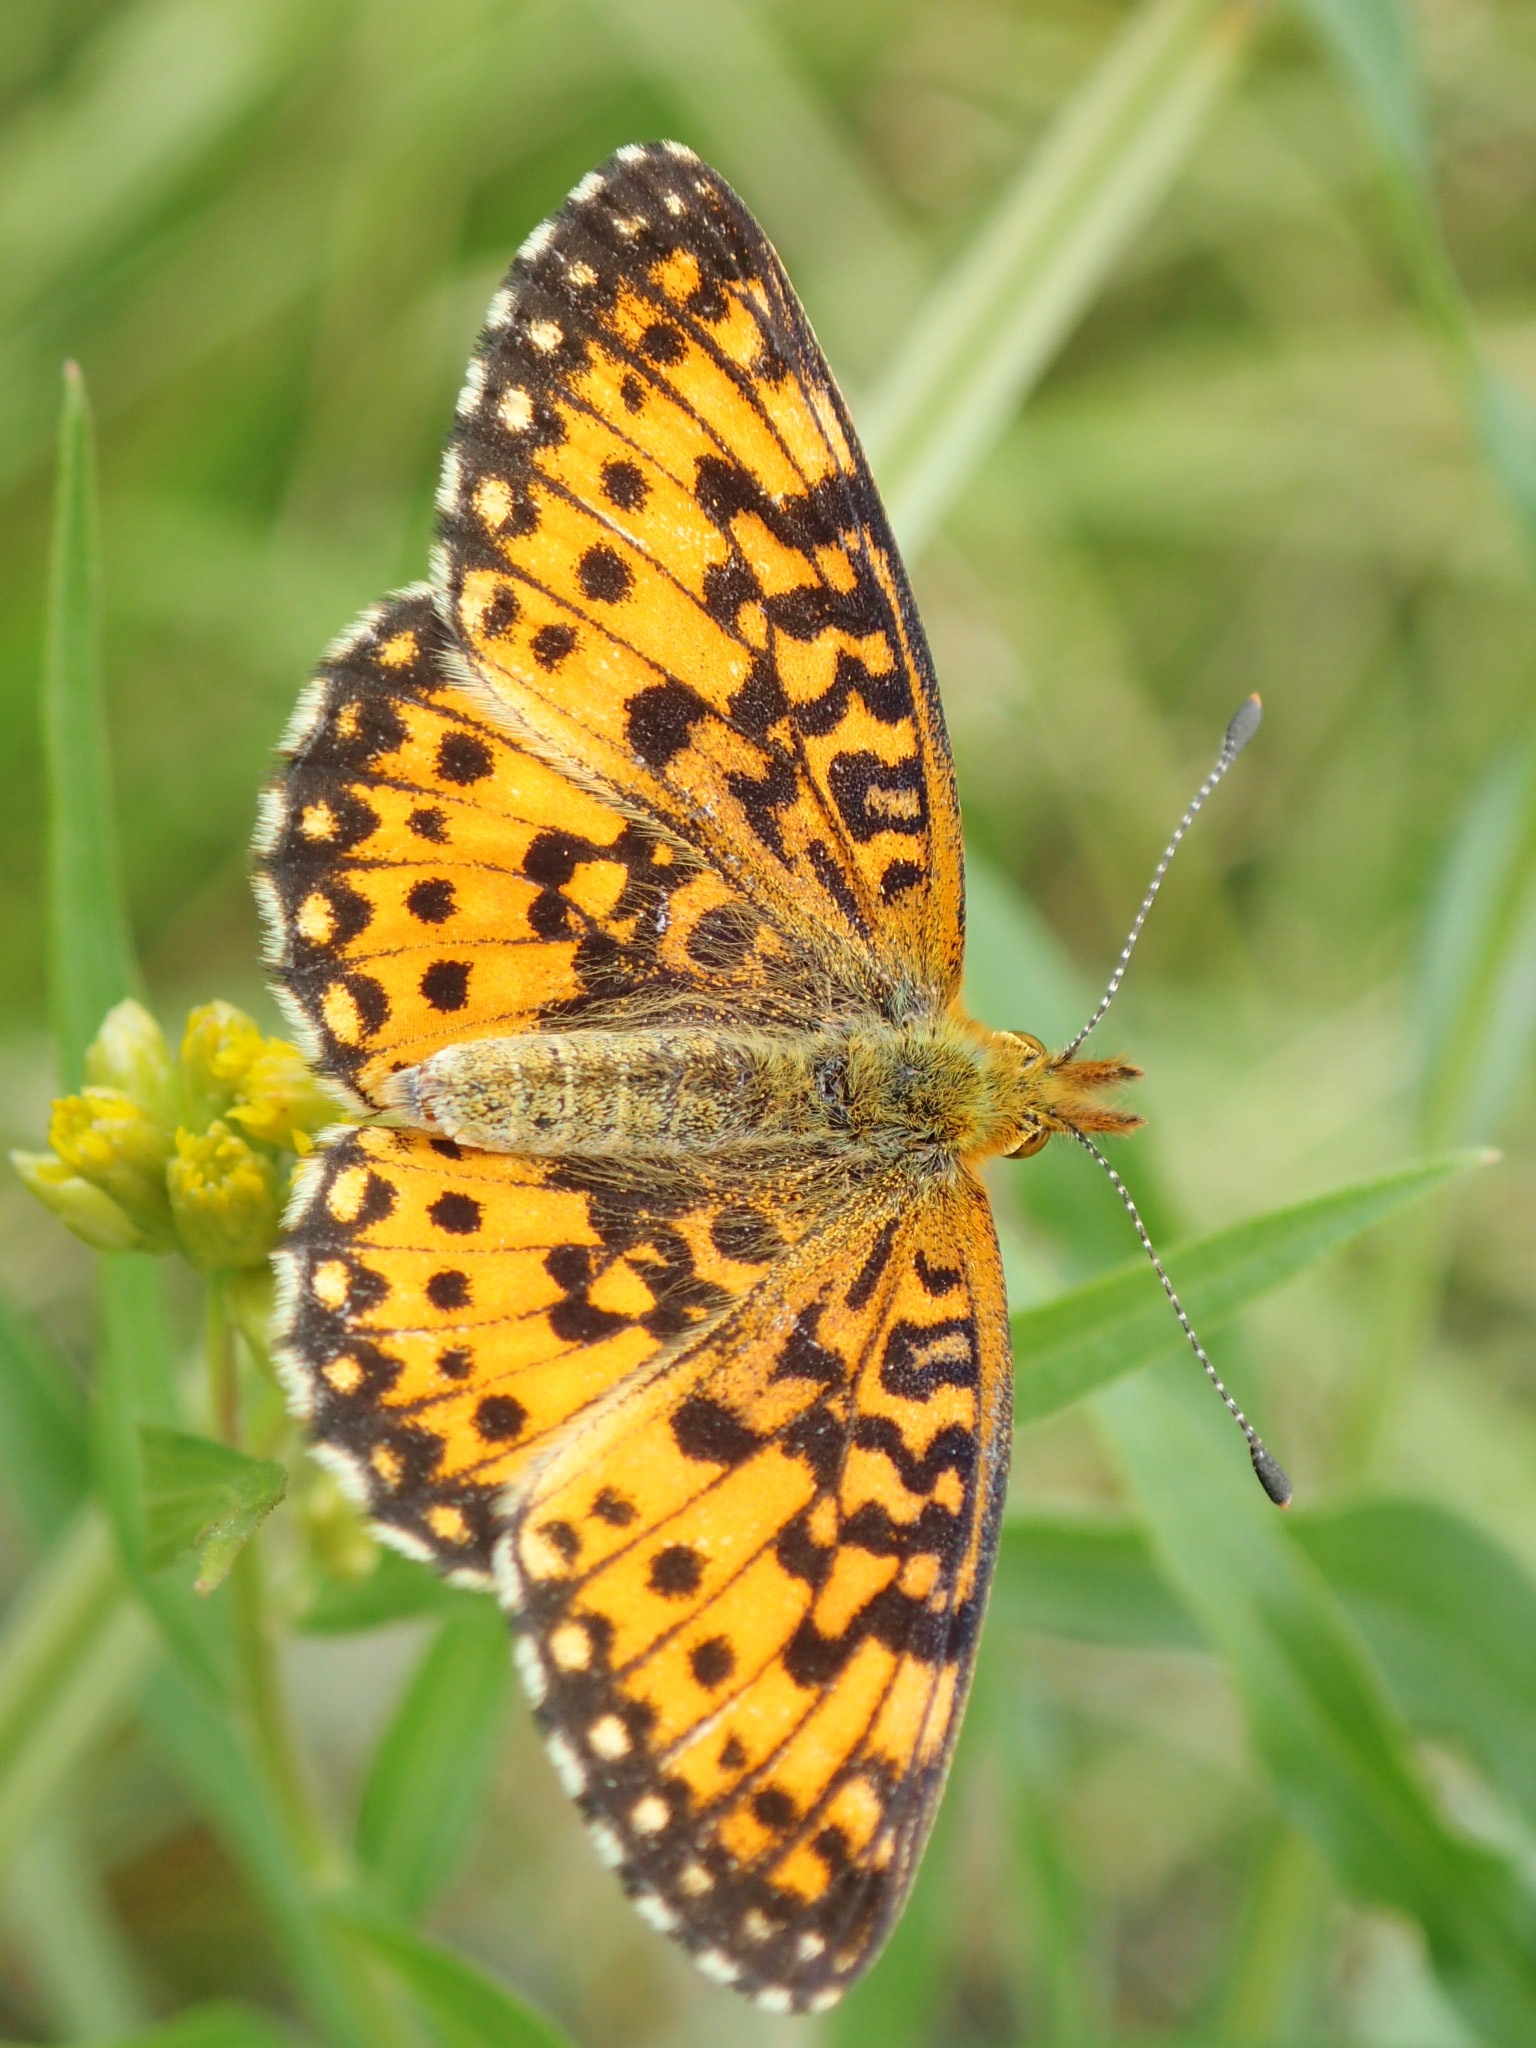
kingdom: Animalia
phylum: Arthropoda
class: Insecta
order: Lepidoptera
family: Nymphalidae
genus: Boloria
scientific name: Boloria
